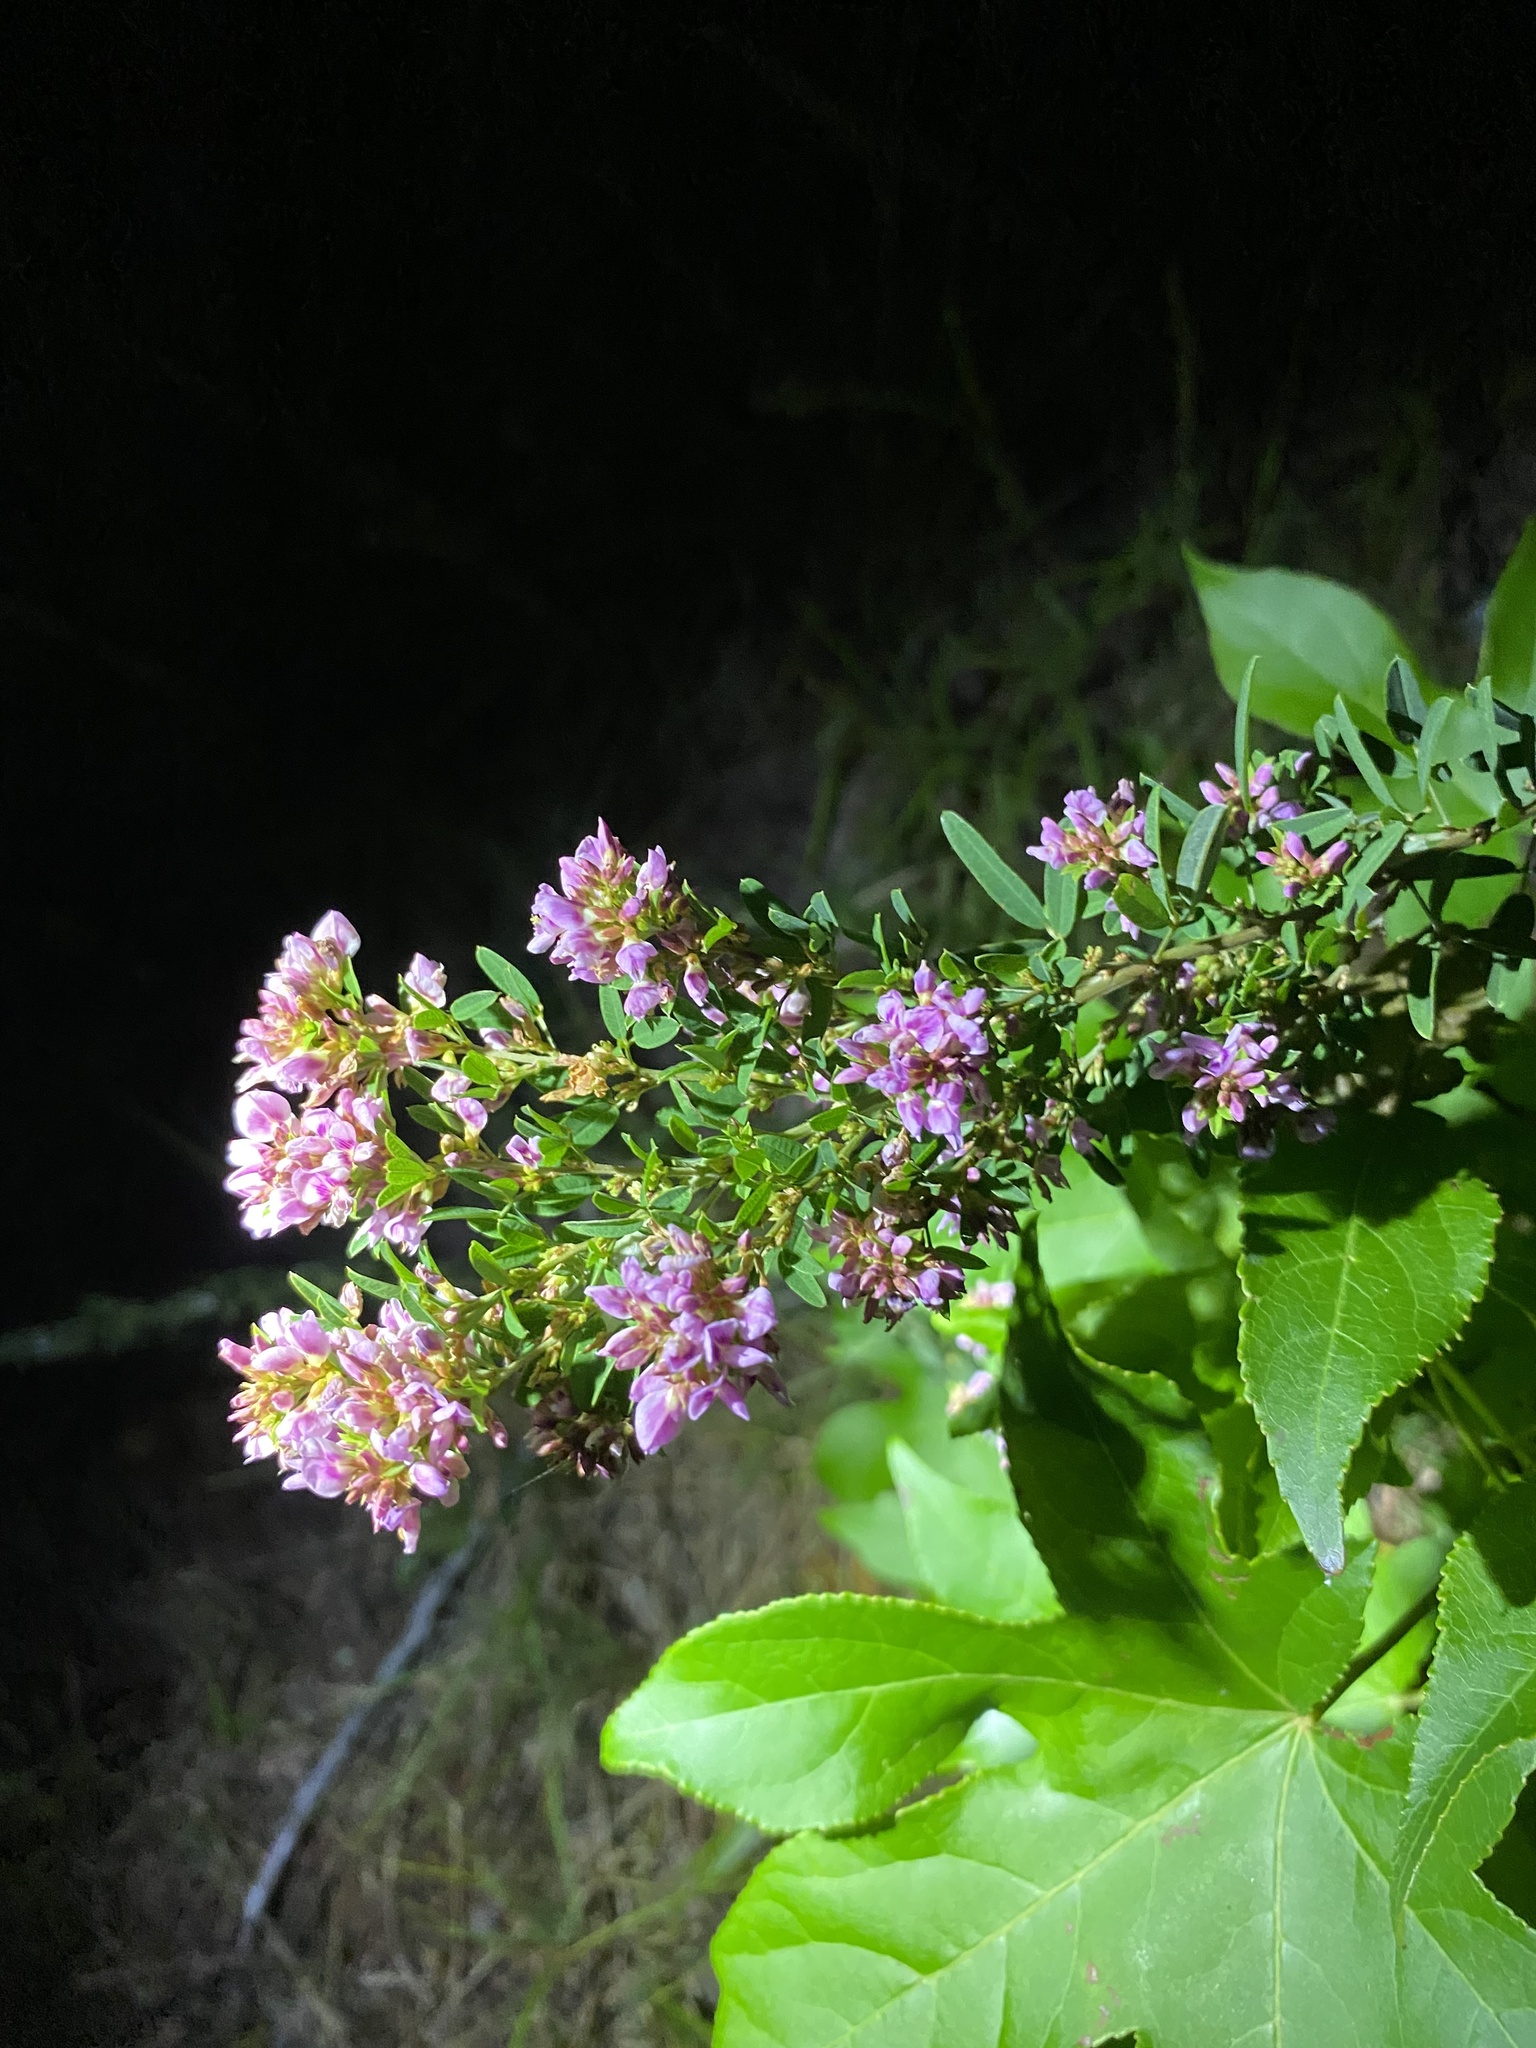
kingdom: Plantae
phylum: Tracheophyta
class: Magnoliopsida
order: Fabales
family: Fabaceae
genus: Lespedeza
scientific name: Lespedeza virginica
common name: Slender bush-clover
